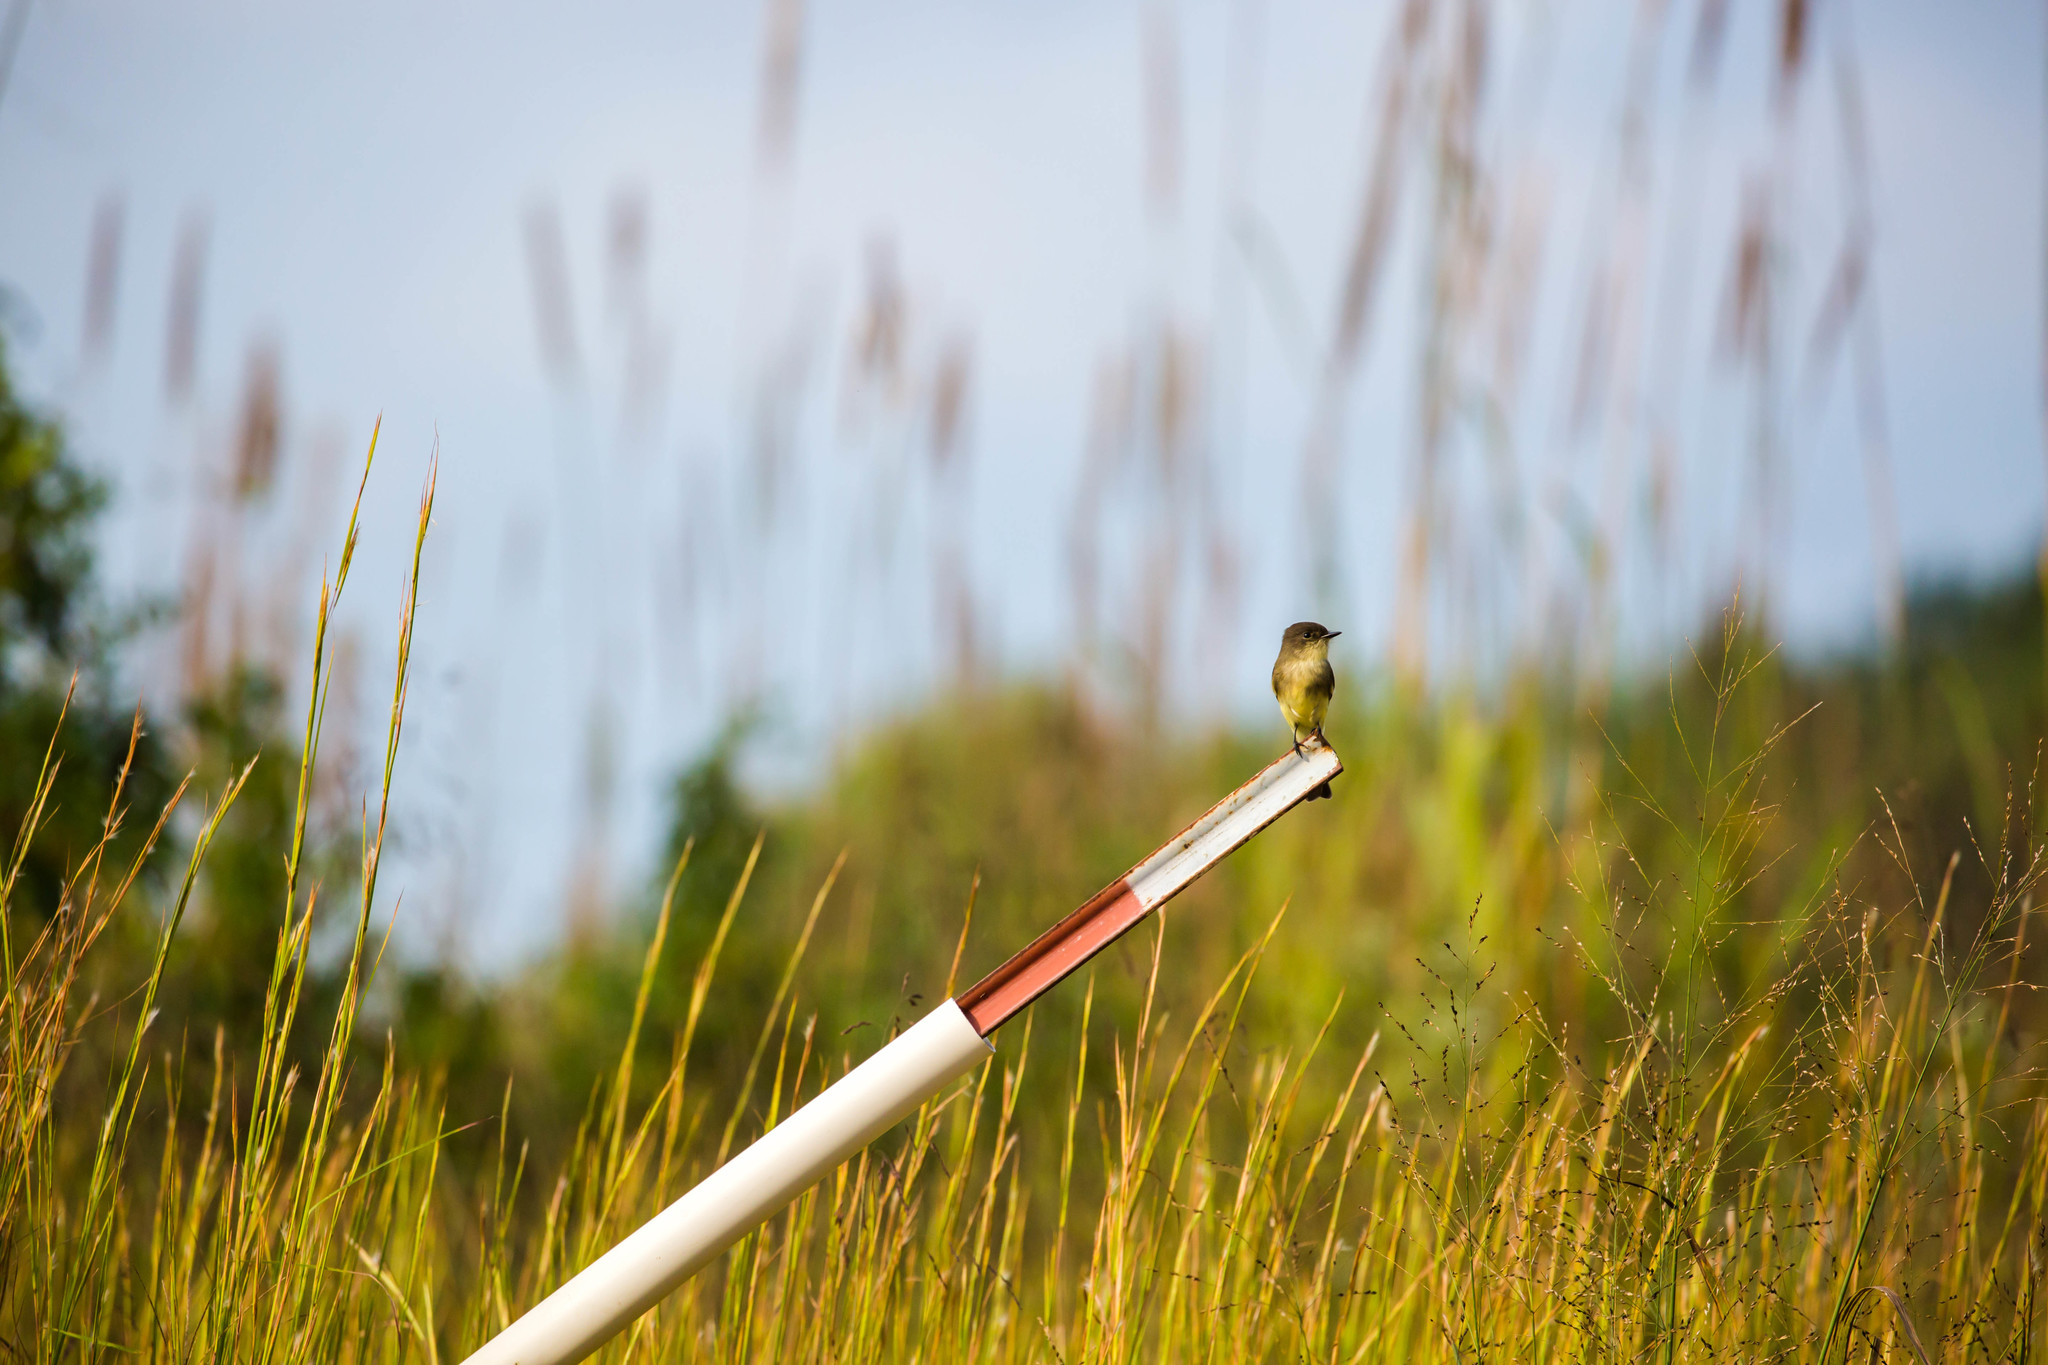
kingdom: Animalia
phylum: Chordata
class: Aves
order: Passeriformes
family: Tyrannidae
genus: Sayornis
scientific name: Sayornis phoebe
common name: Eastern phoebe
